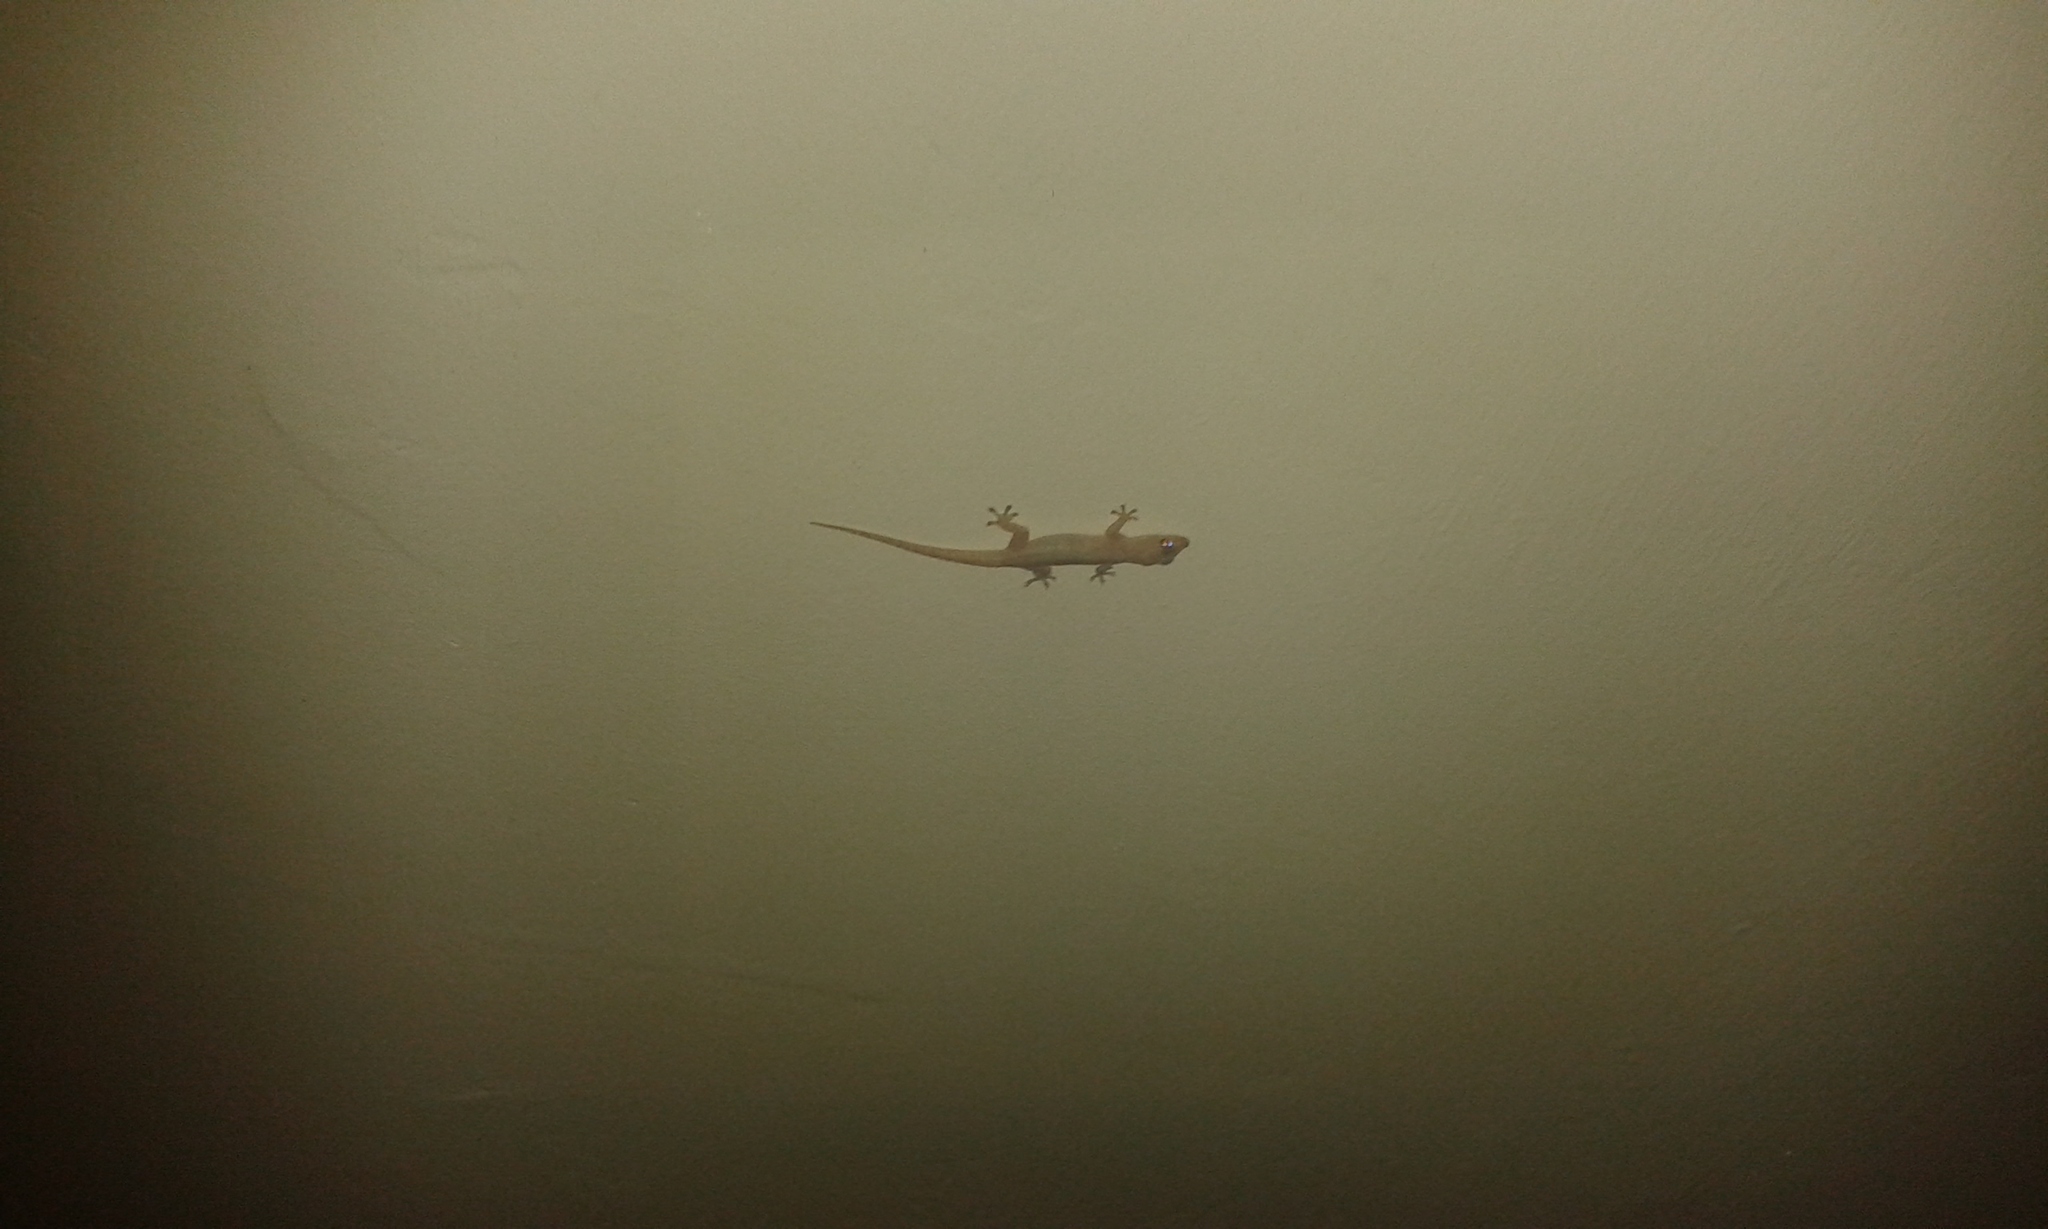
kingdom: Animalia
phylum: Chordata
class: Squamata
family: Gekkonidae
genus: Hemidactylus
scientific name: Hemidactylus frenatus
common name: Common house gecko
